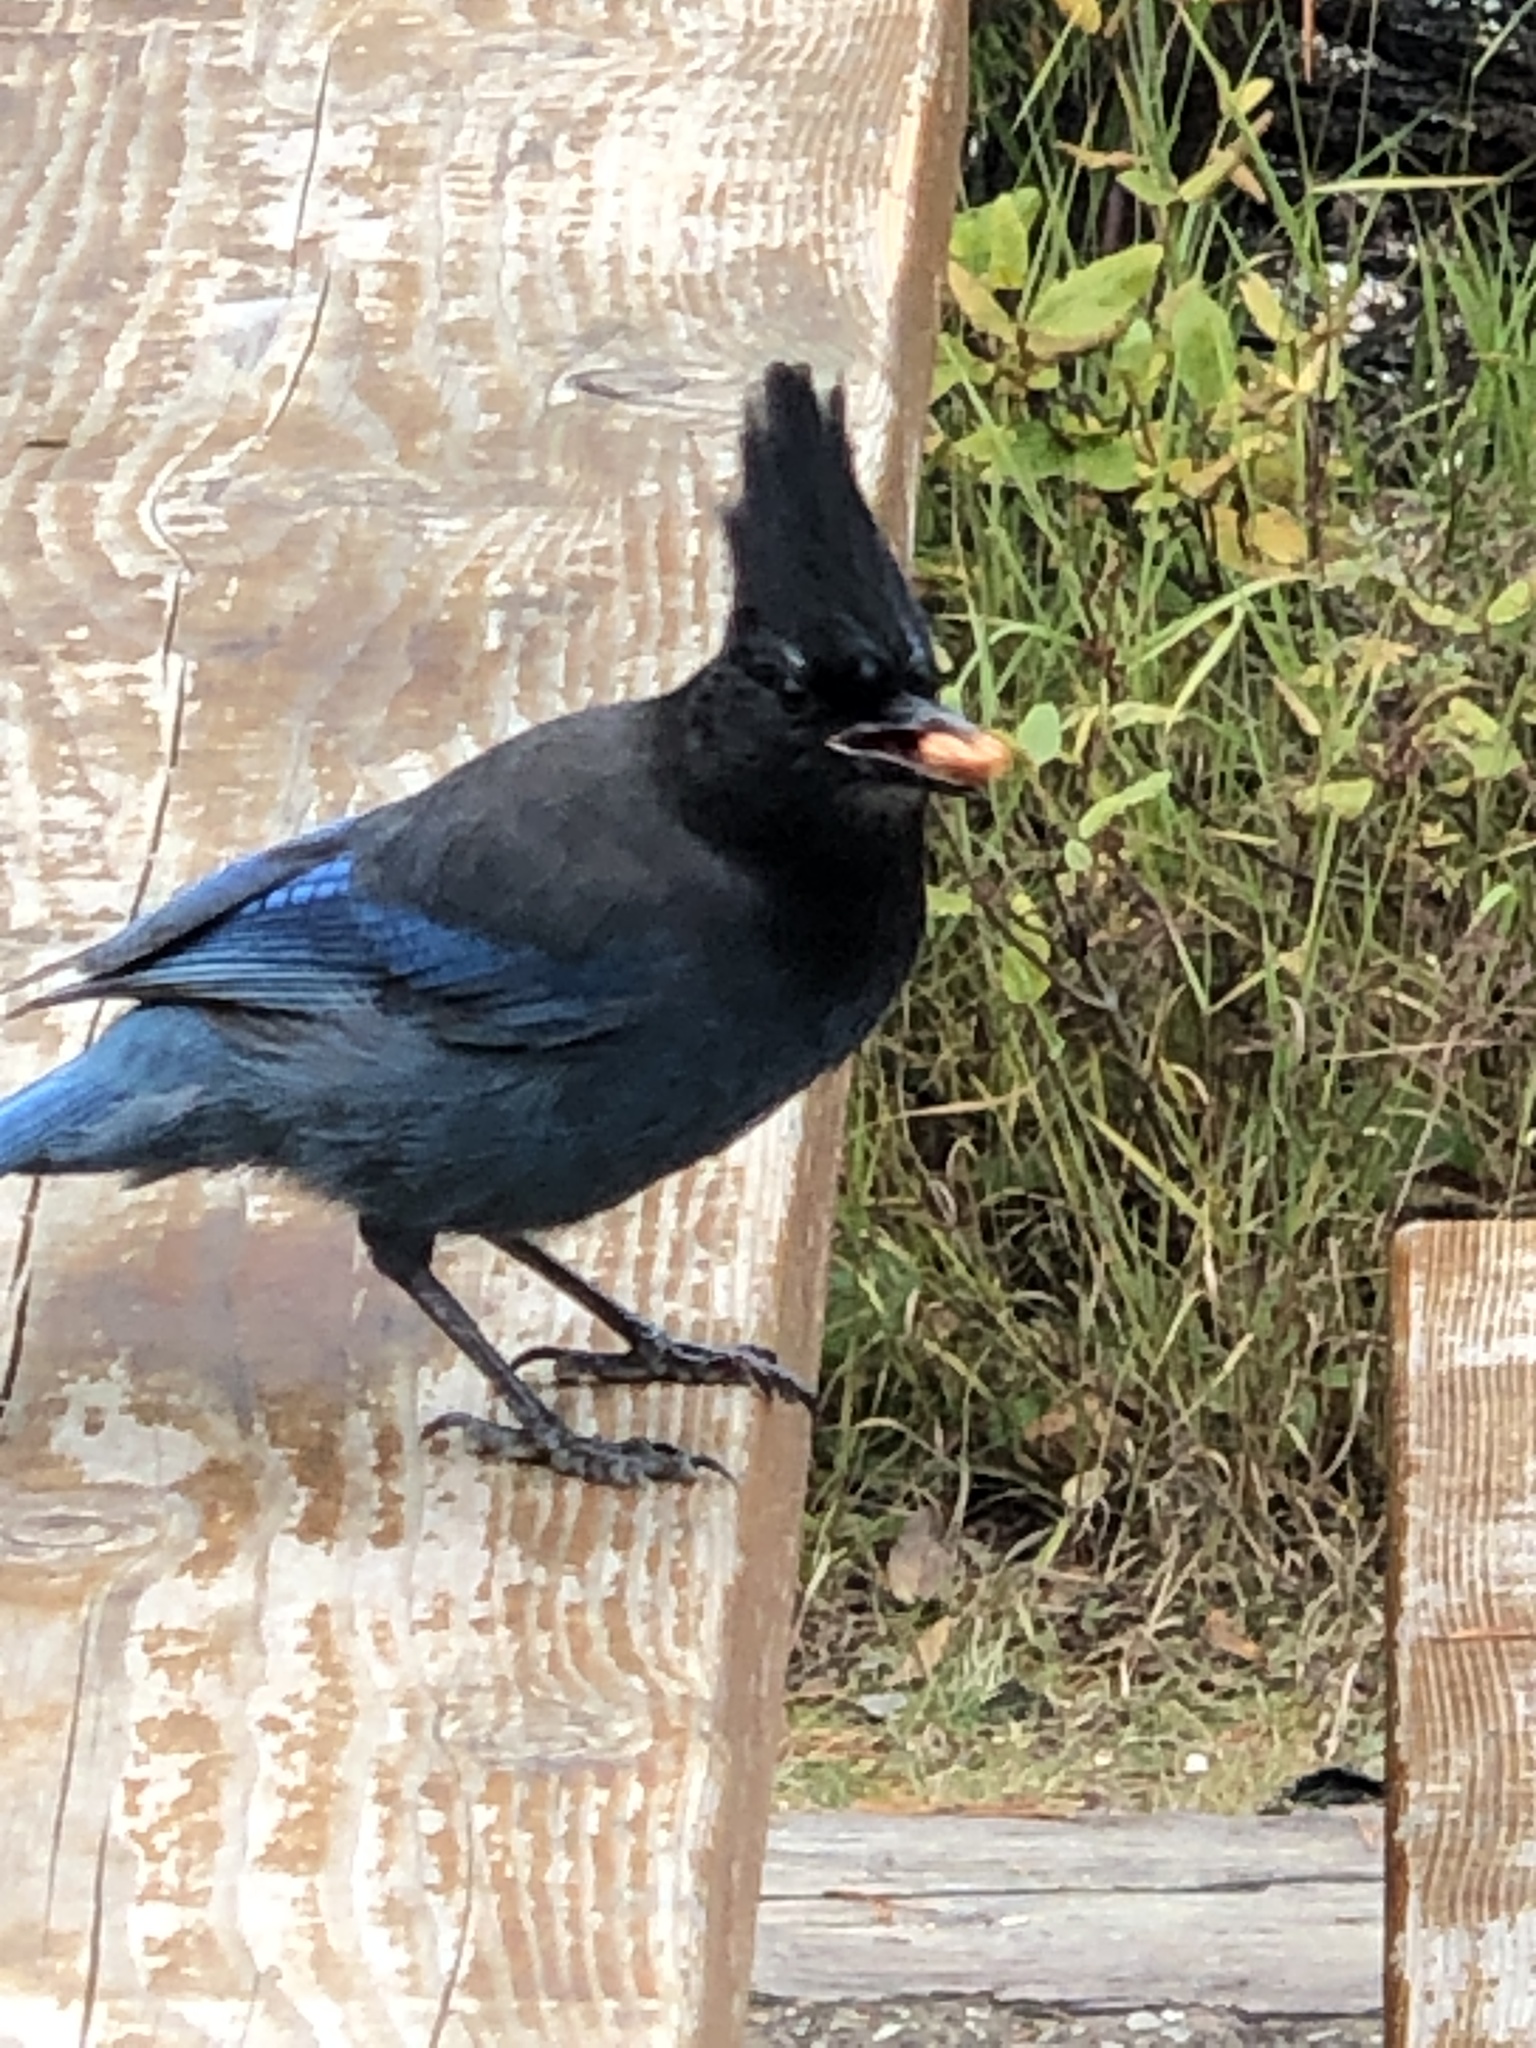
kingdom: Animalia
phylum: Chordata
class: Aves
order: Passeriformes
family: Corvidae
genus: Cyanocitta
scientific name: Cyanocitta stelleri
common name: Steller's jay
